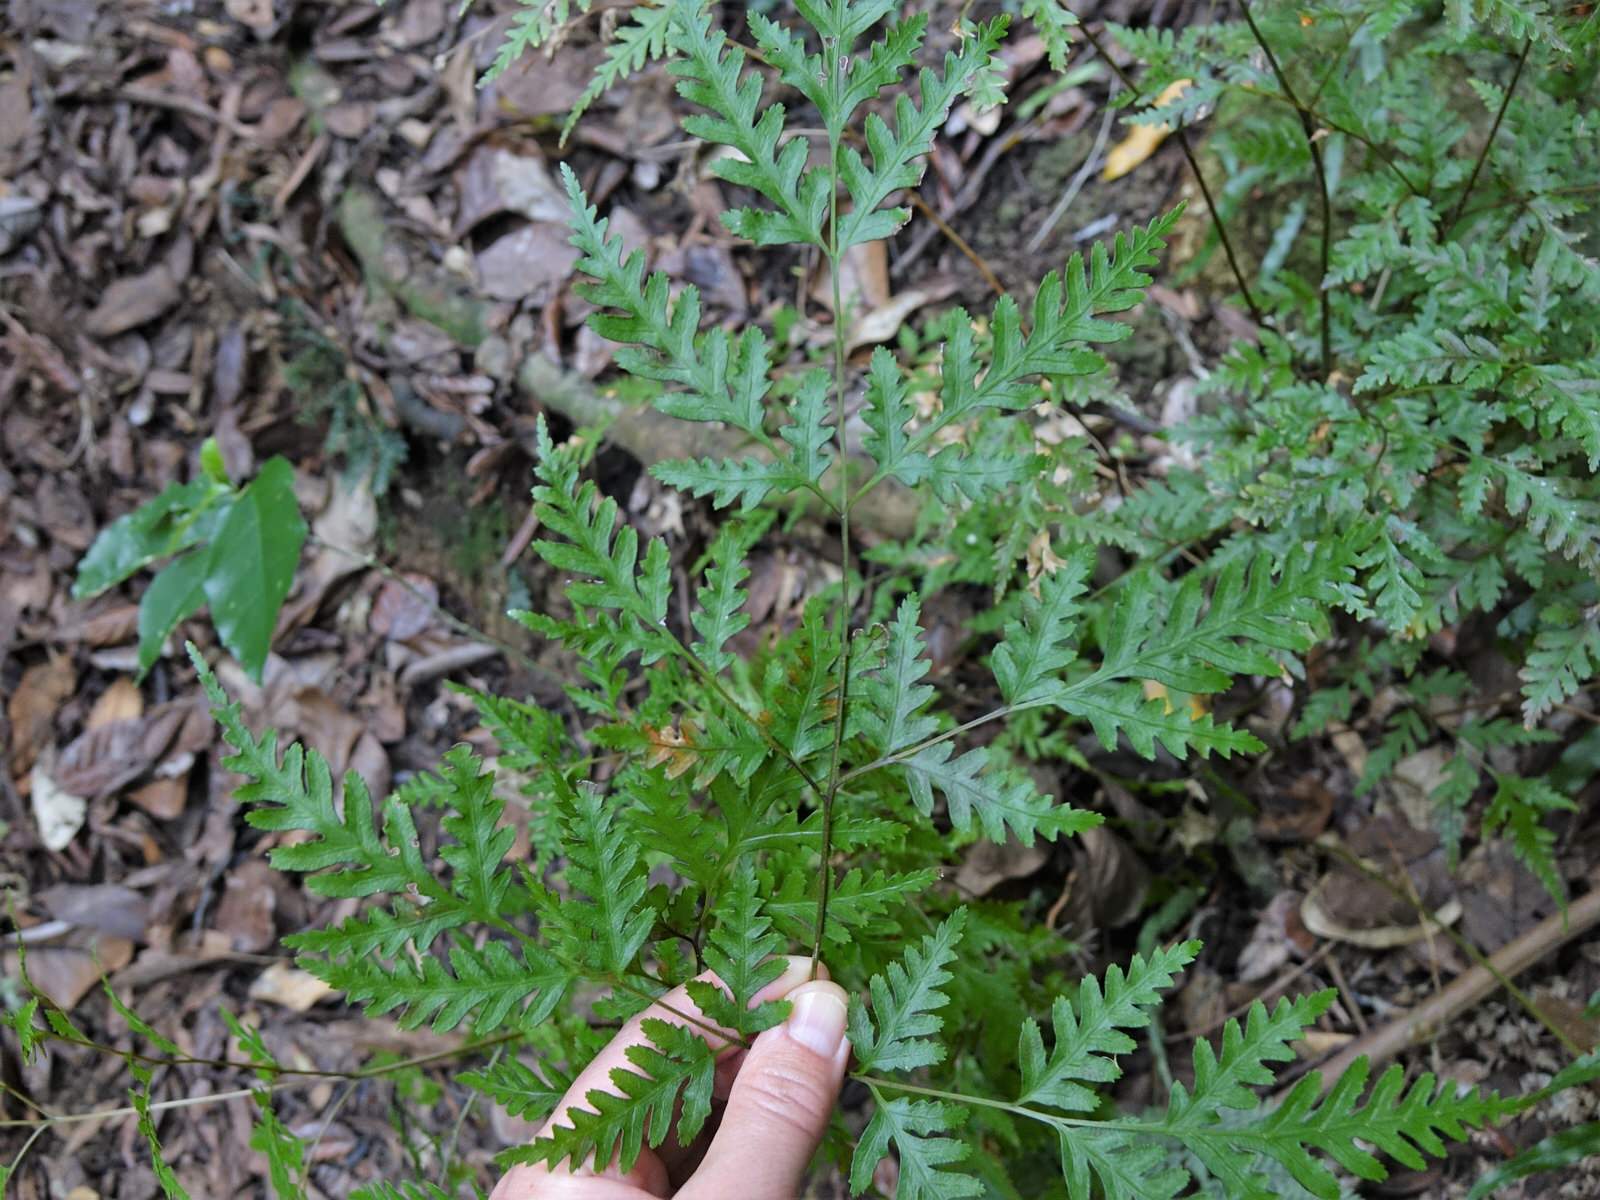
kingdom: Plantae
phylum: Tracheophyta
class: Polypodiopsida
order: Polypodiales
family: Pteridaceae
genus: Pteris
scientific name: Pteris macilenta
